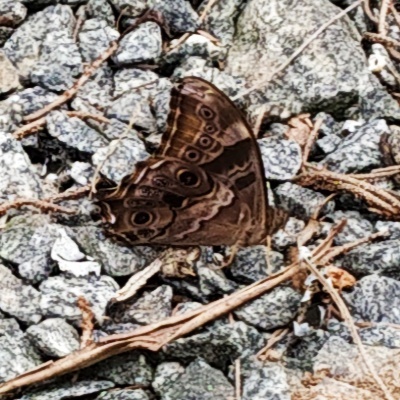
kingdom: Animalia
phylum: Arthropoda
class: Insecta
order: Lepidoptera
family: Nymphalidae
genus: Lethe
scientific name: Lethe drypetis
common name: Tamil treebrown
